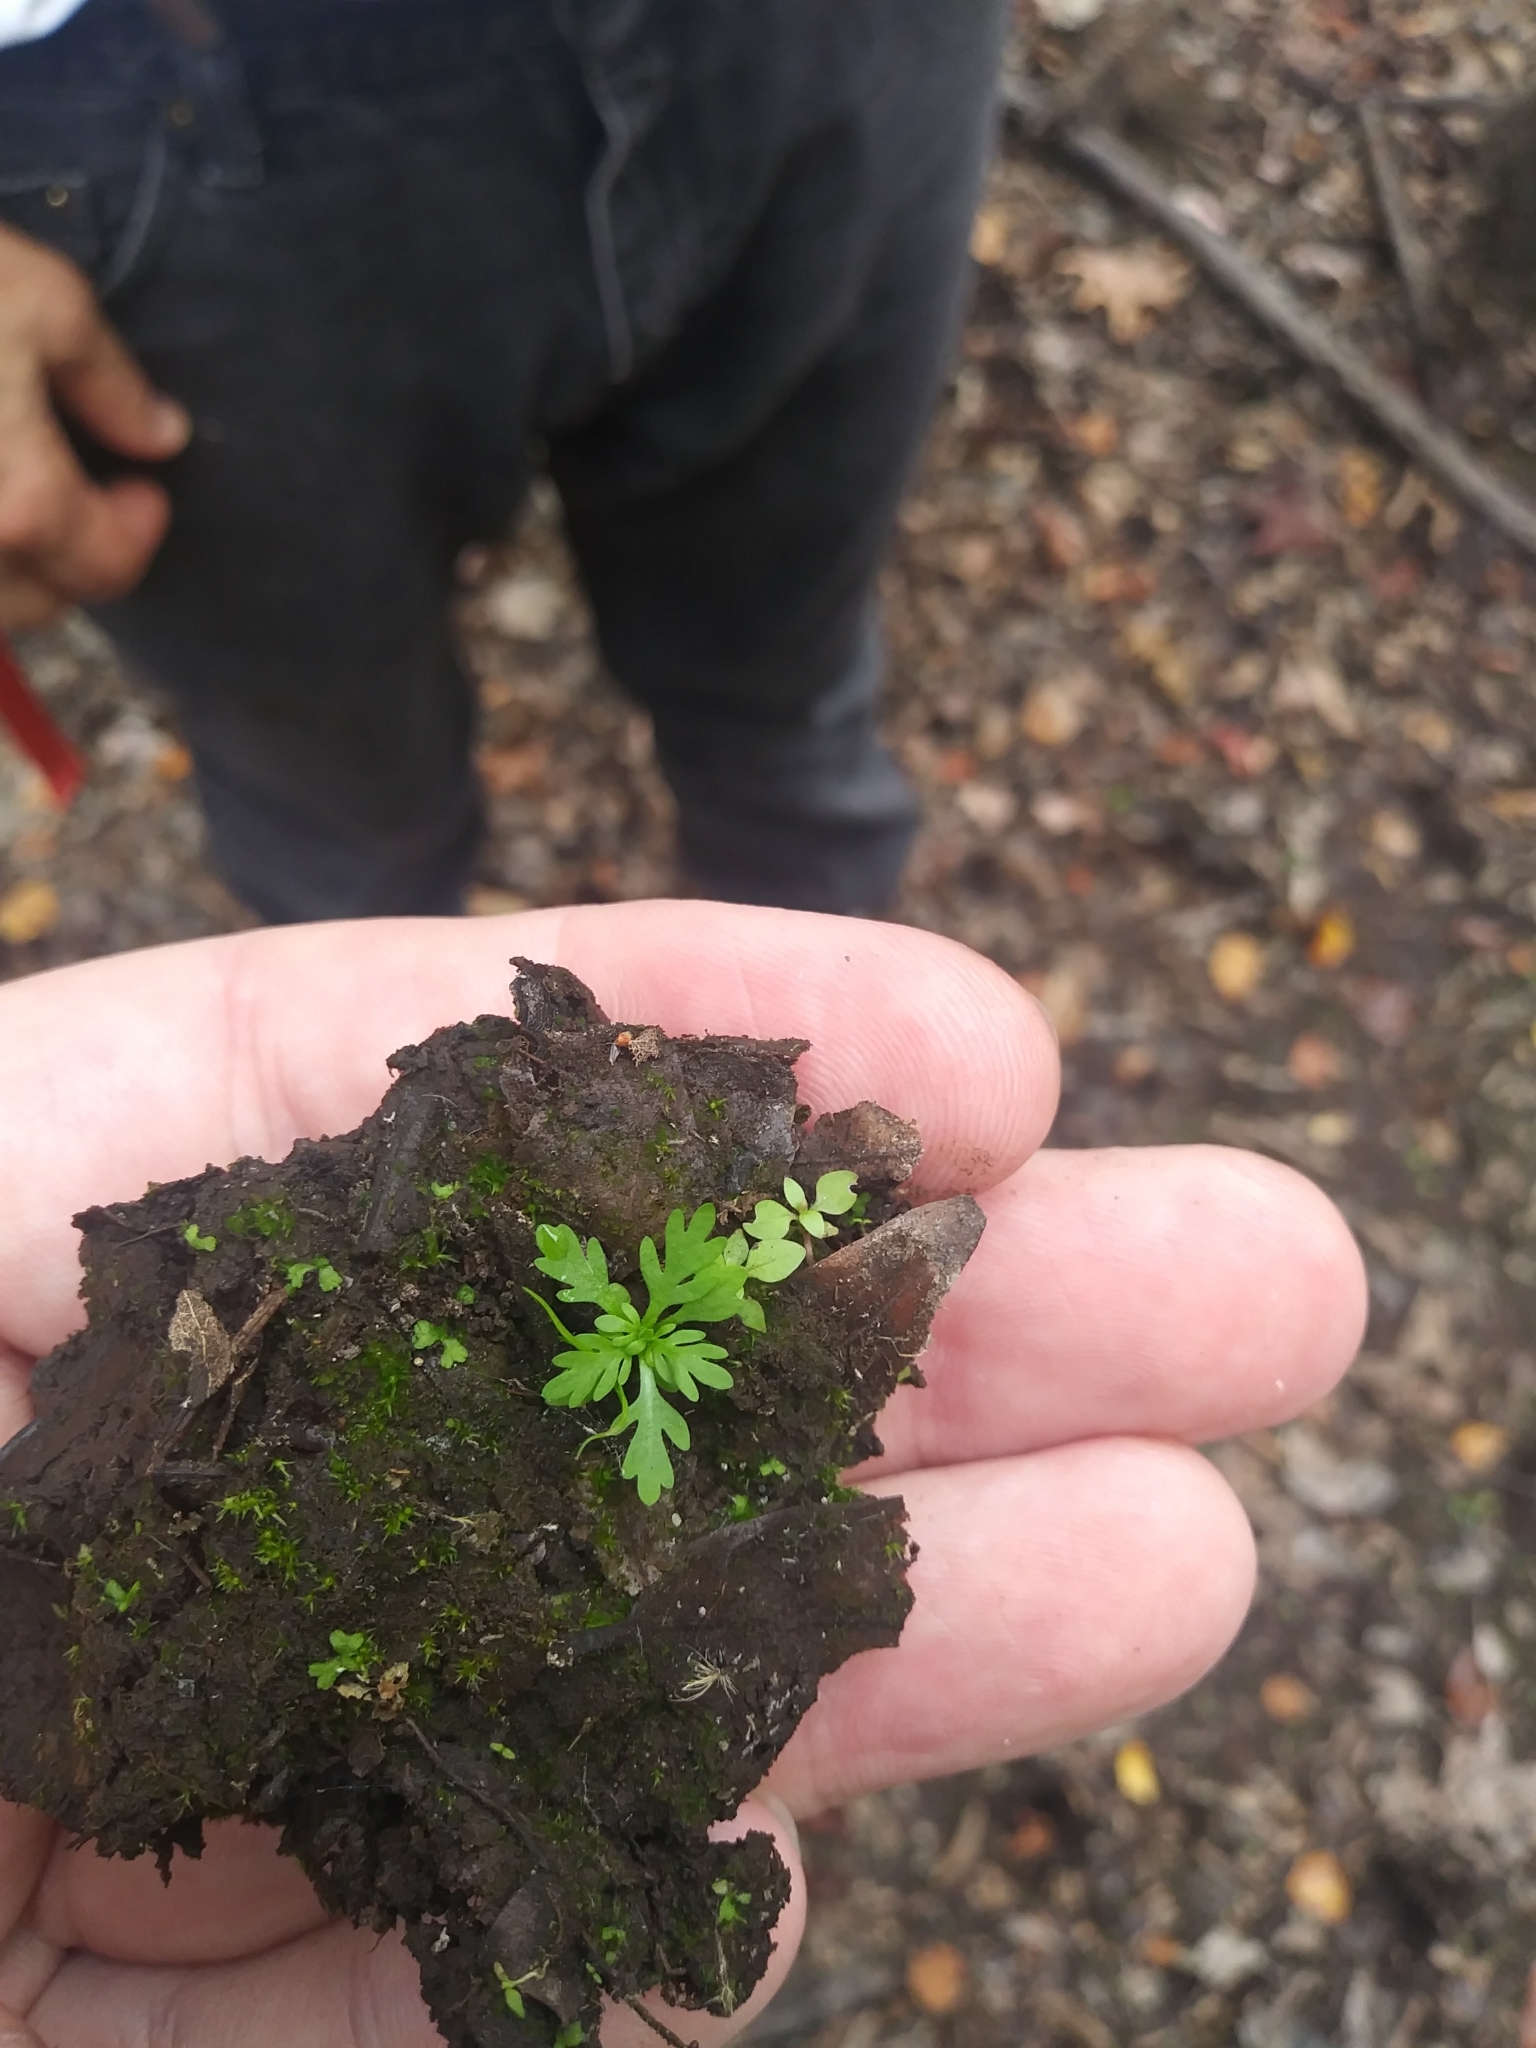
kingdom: Plantae
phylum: Tracheophyta
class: Magnoliopsida
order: Ericales
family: Primulaceae
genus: Hottonia
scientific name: Hottonia inflata
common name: American featherfoil
